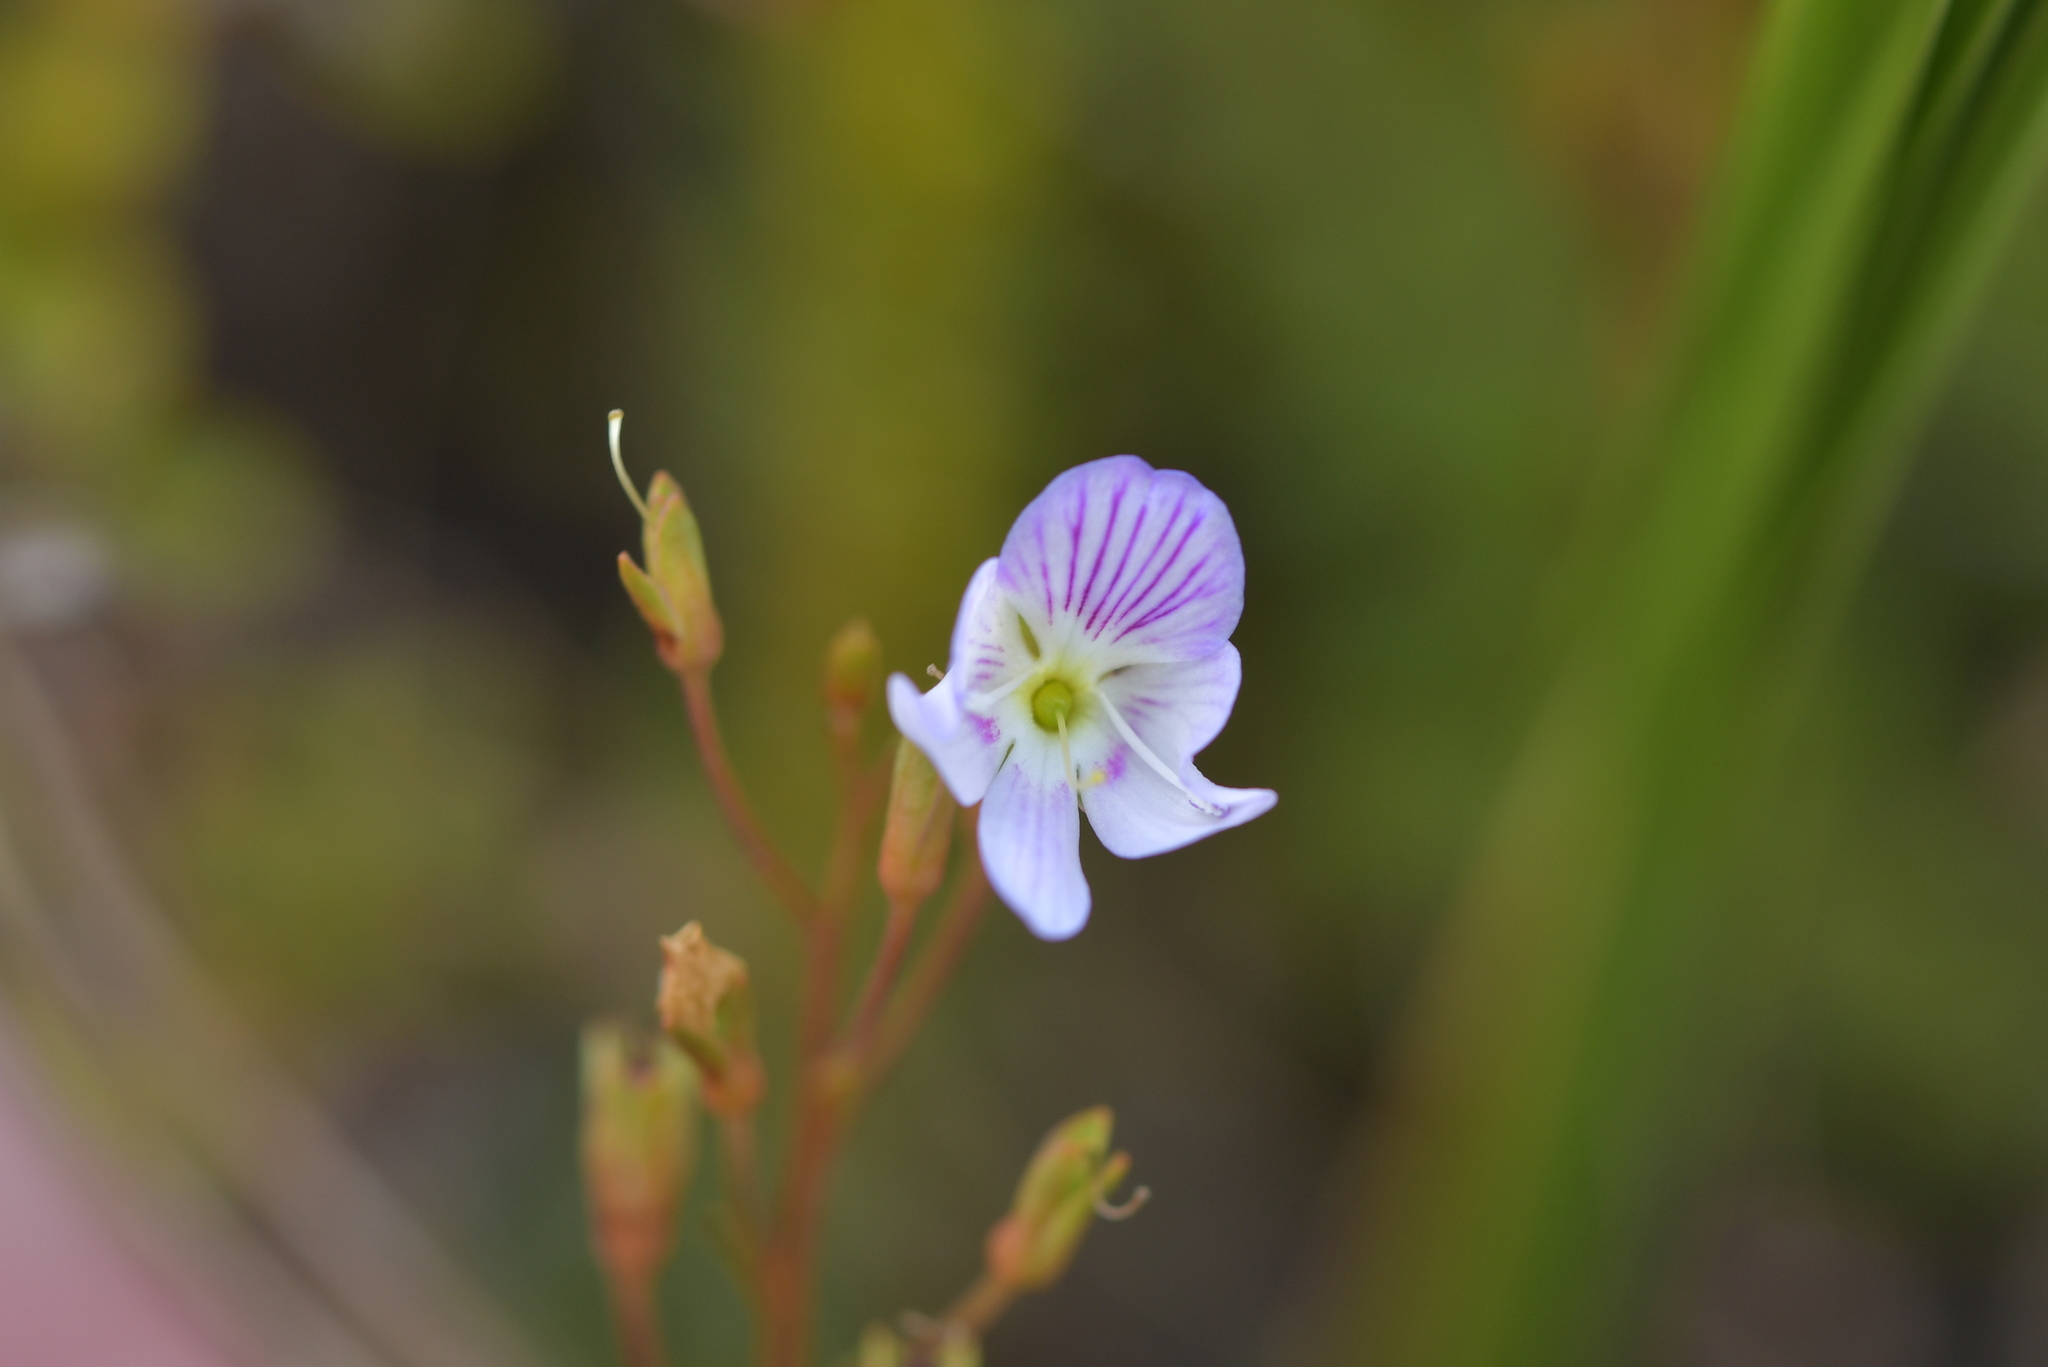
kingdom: Plantae
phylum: Tracheophyta
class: Magnoliopsida
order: Lamiales
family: Plantaginaceae
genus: Veronica
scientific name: Veronica lyallii
